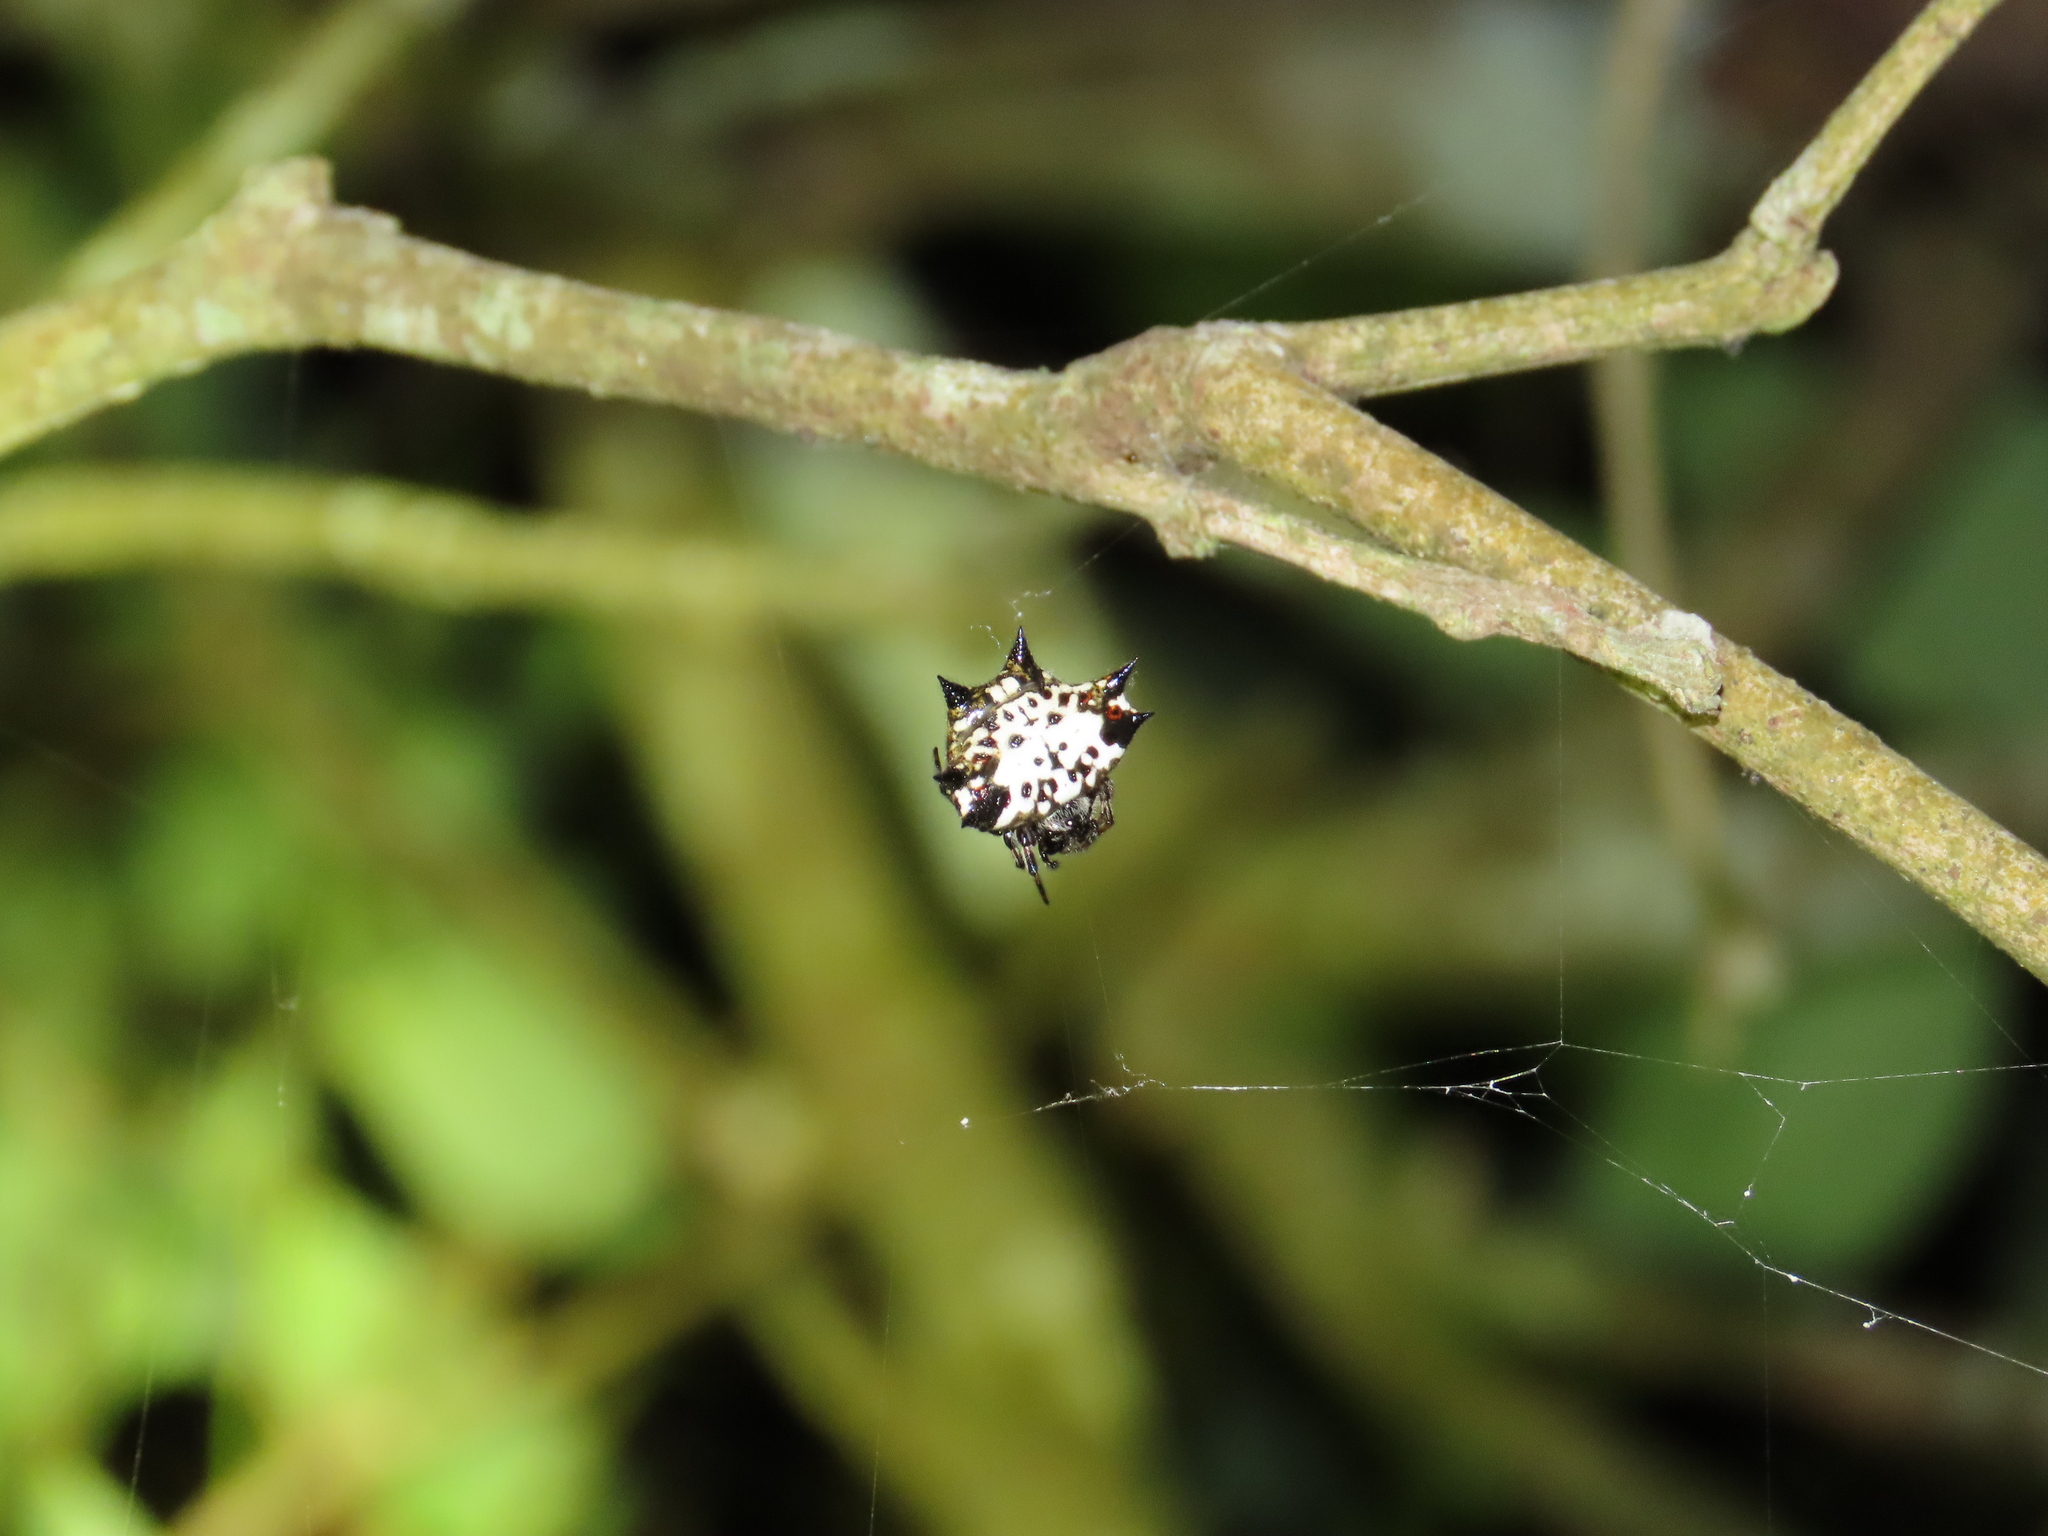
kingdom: Animalia
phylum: Arthropoda
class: Arachnida
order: Araneae
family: Araneidae
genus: Gasteracantha
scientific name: Gasteracantha kuhli
